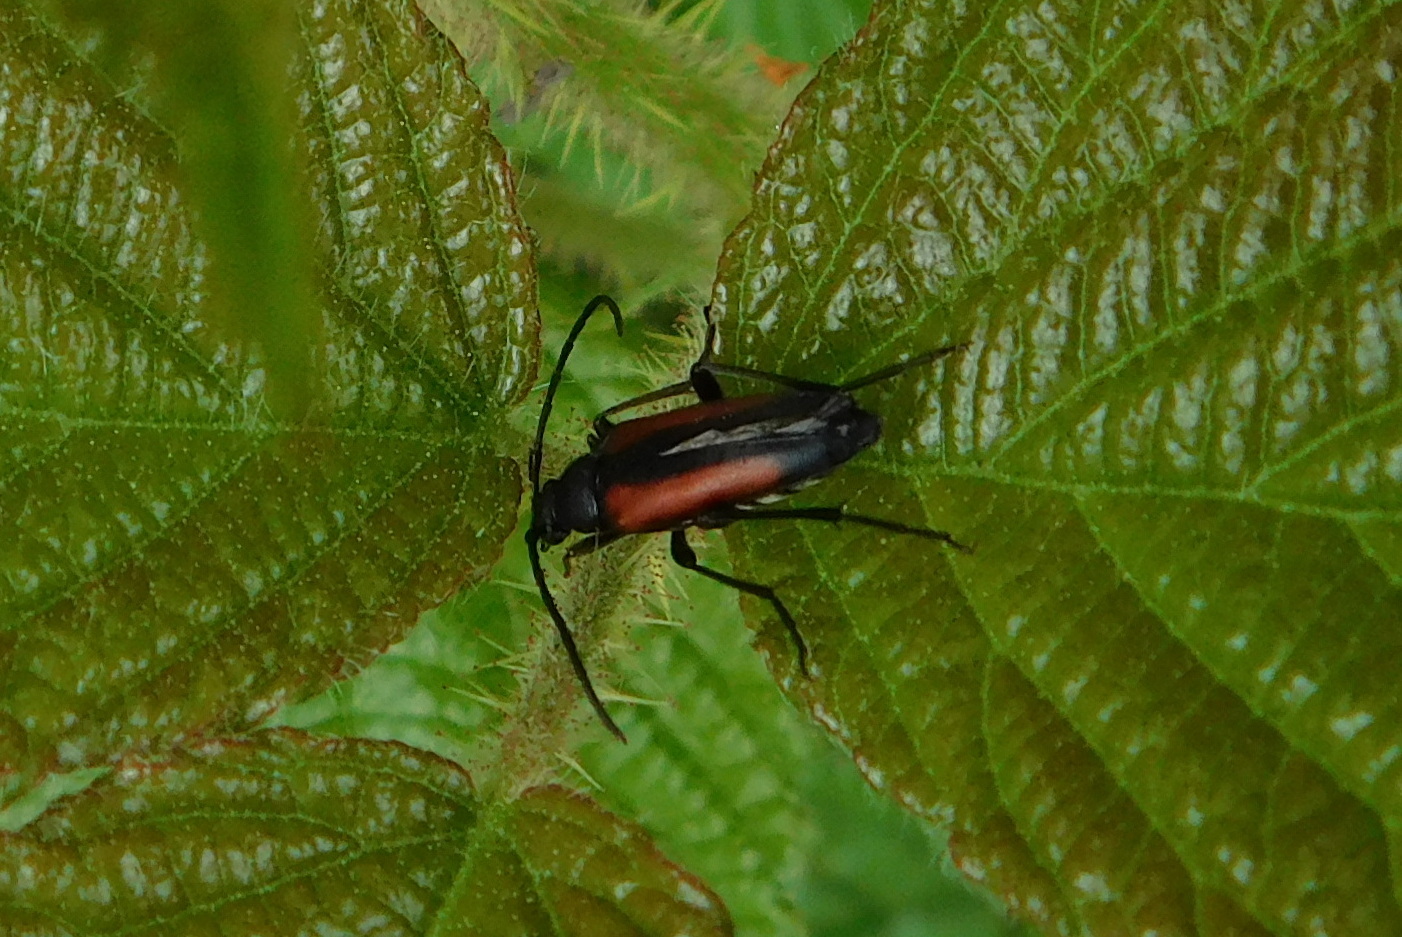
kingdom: Animalia
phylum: Arthropoda
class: Insecta
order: Coleoptera
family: Cerambycidae
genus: Stenurella
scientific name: Stenurella melanura
